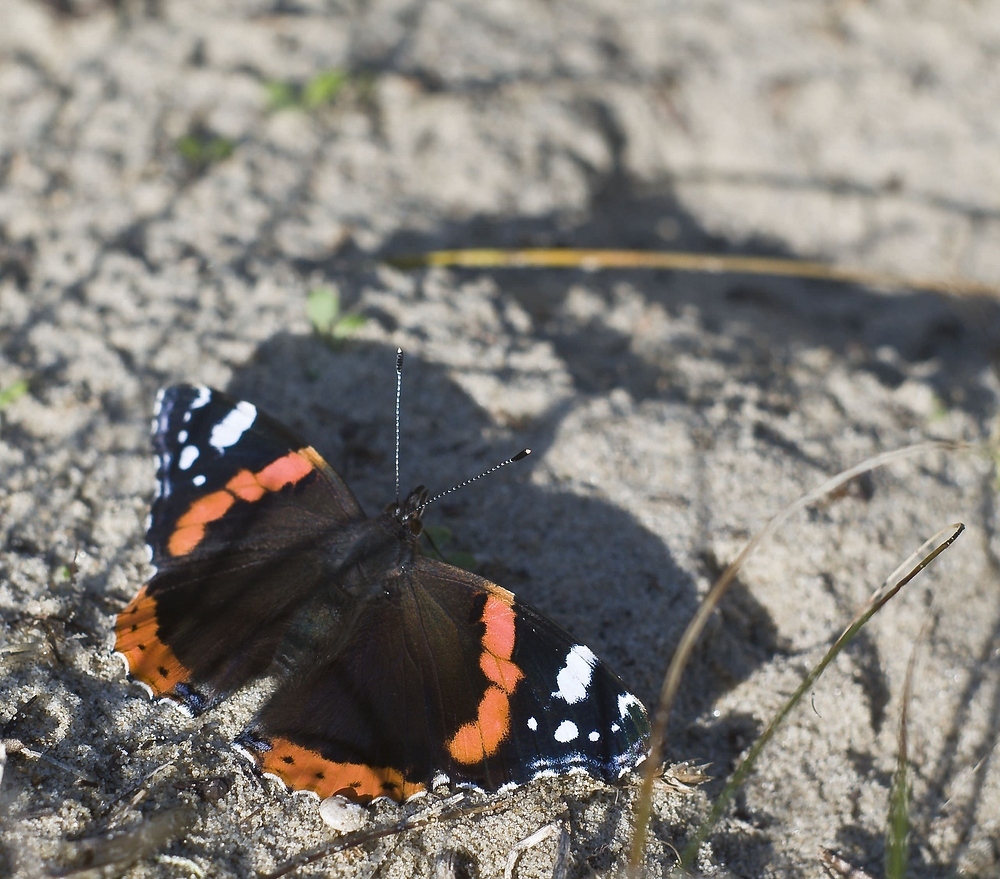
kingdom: Animalia
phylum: Arthropoda
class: Insecta
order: Lepidoptera
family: Nymphalidae
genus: Vanessa
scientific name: Vanessa atalanta
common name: Red admiral
